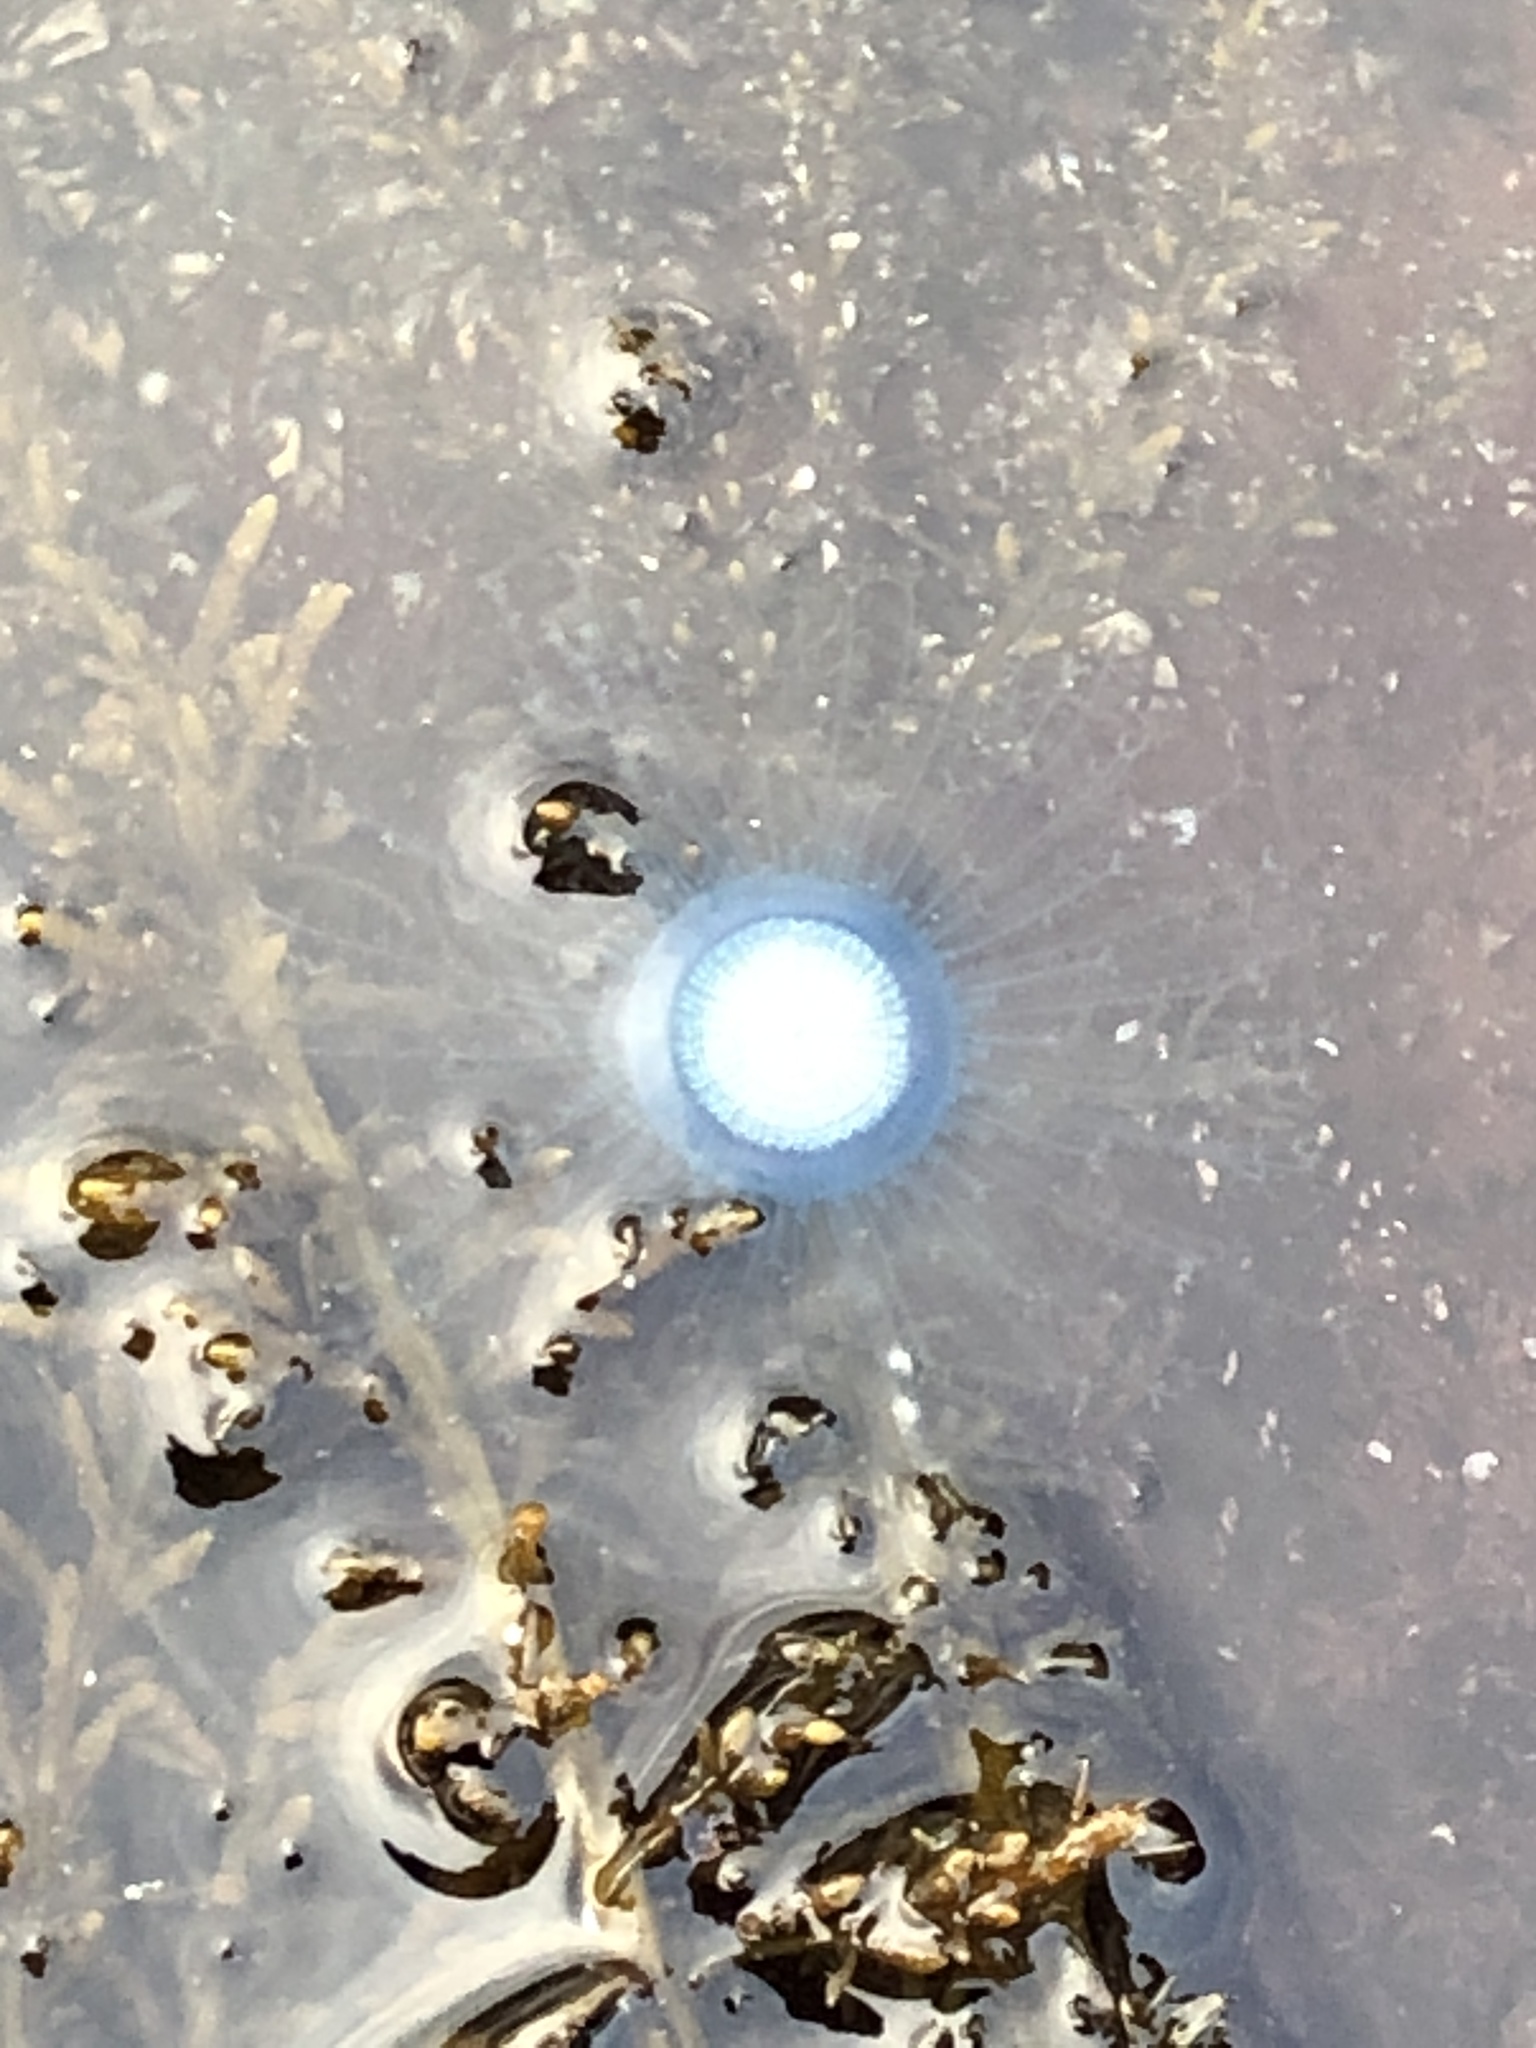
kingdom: Animalia
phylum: Cnidaria
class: Hydrozoa
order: Anthoathecata
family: Porpitidae
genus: Porpita
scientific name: Porpita porpita
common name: Blue button
